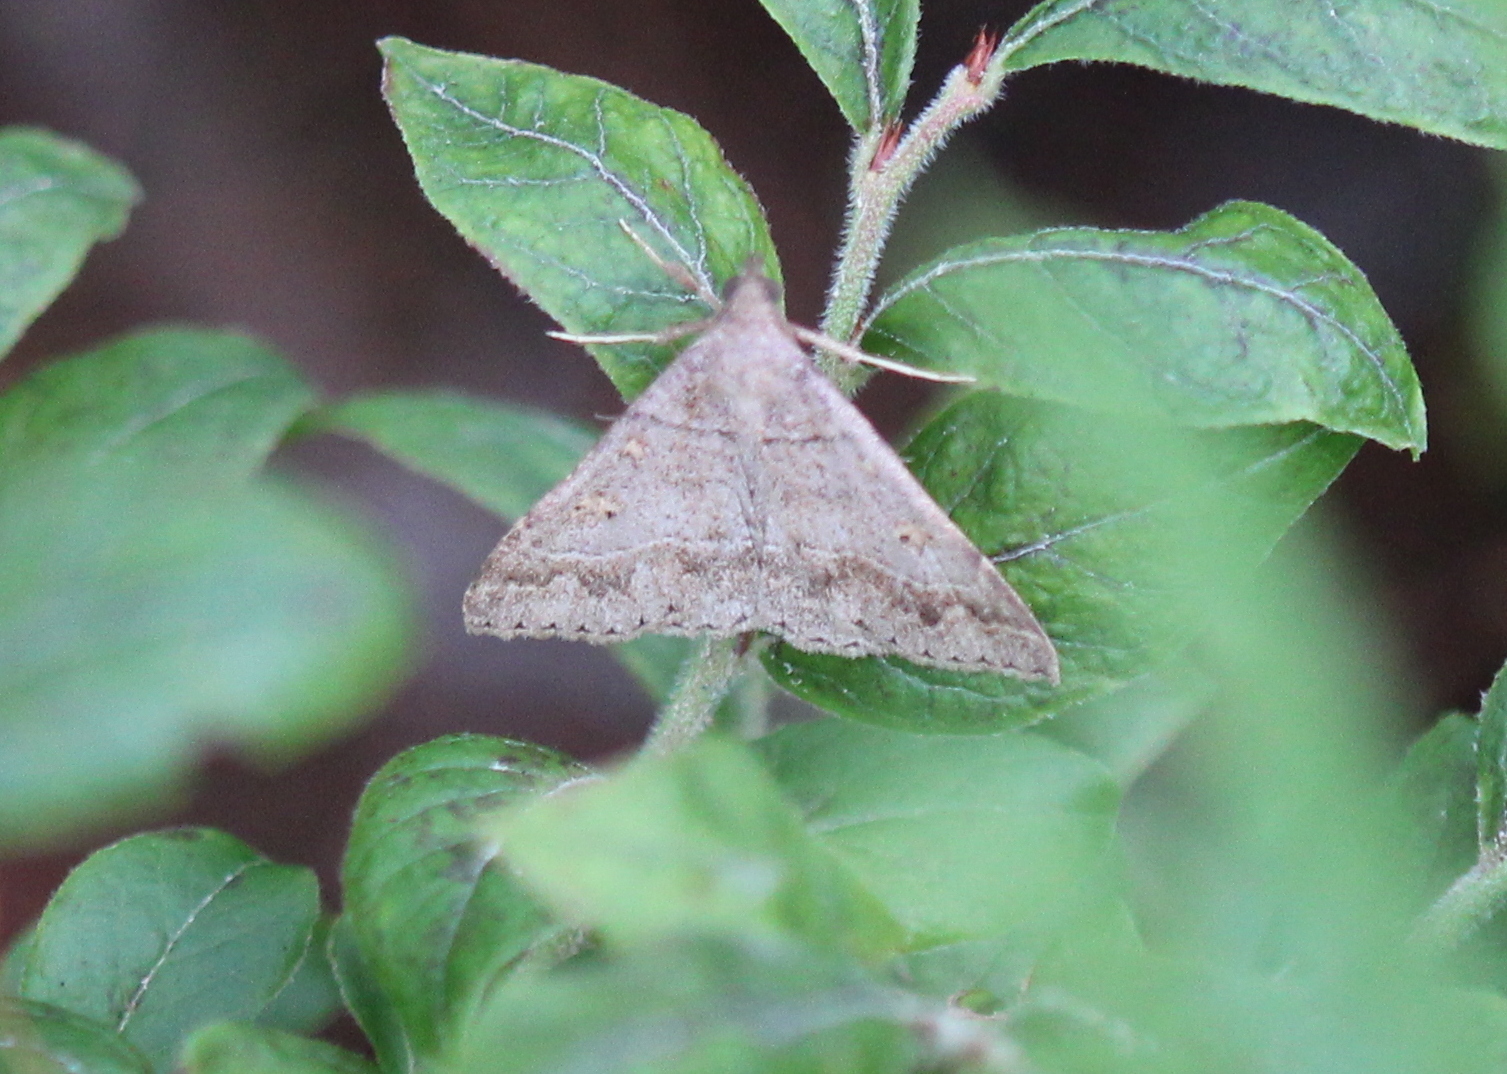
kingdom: Animalia
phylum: Arthropoda
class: Insecta
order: Lepidoptera
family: Erebidae
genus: Renia
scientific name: Renia flavipunctalis
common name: Yellow-spotted renia moth
